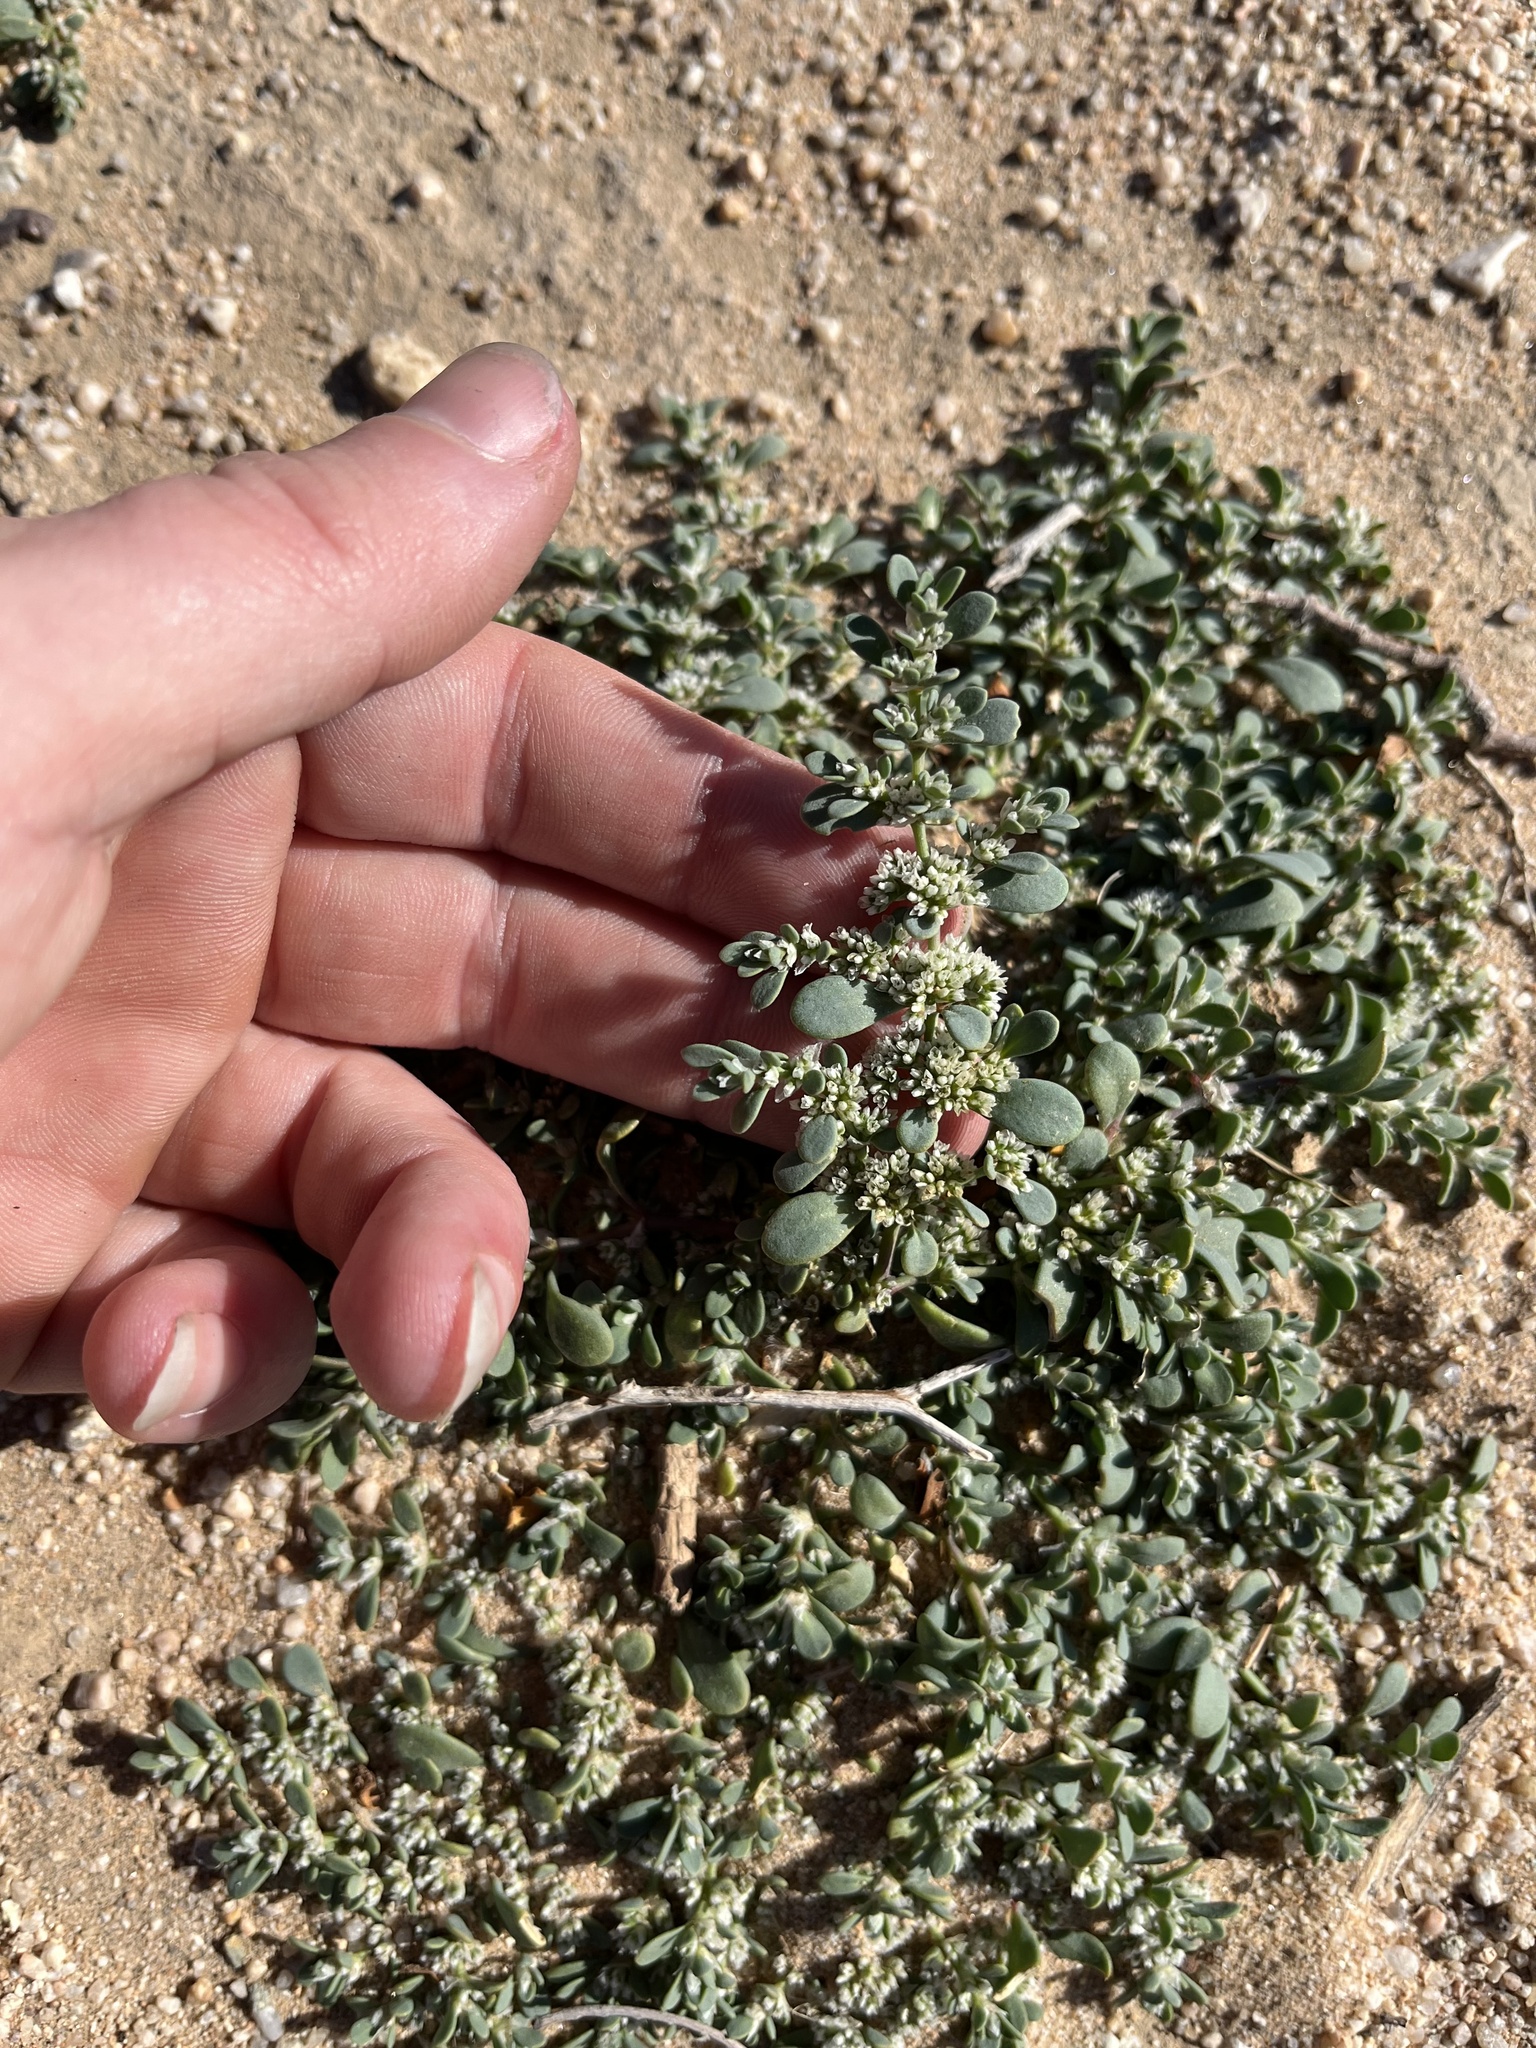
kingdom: Plantae
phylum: Tracheophyta
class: Magnoliopsida
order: Caryophyllales
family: Caryophyllaceae
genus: Achyronychia
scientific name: Achyronychia cooperi
